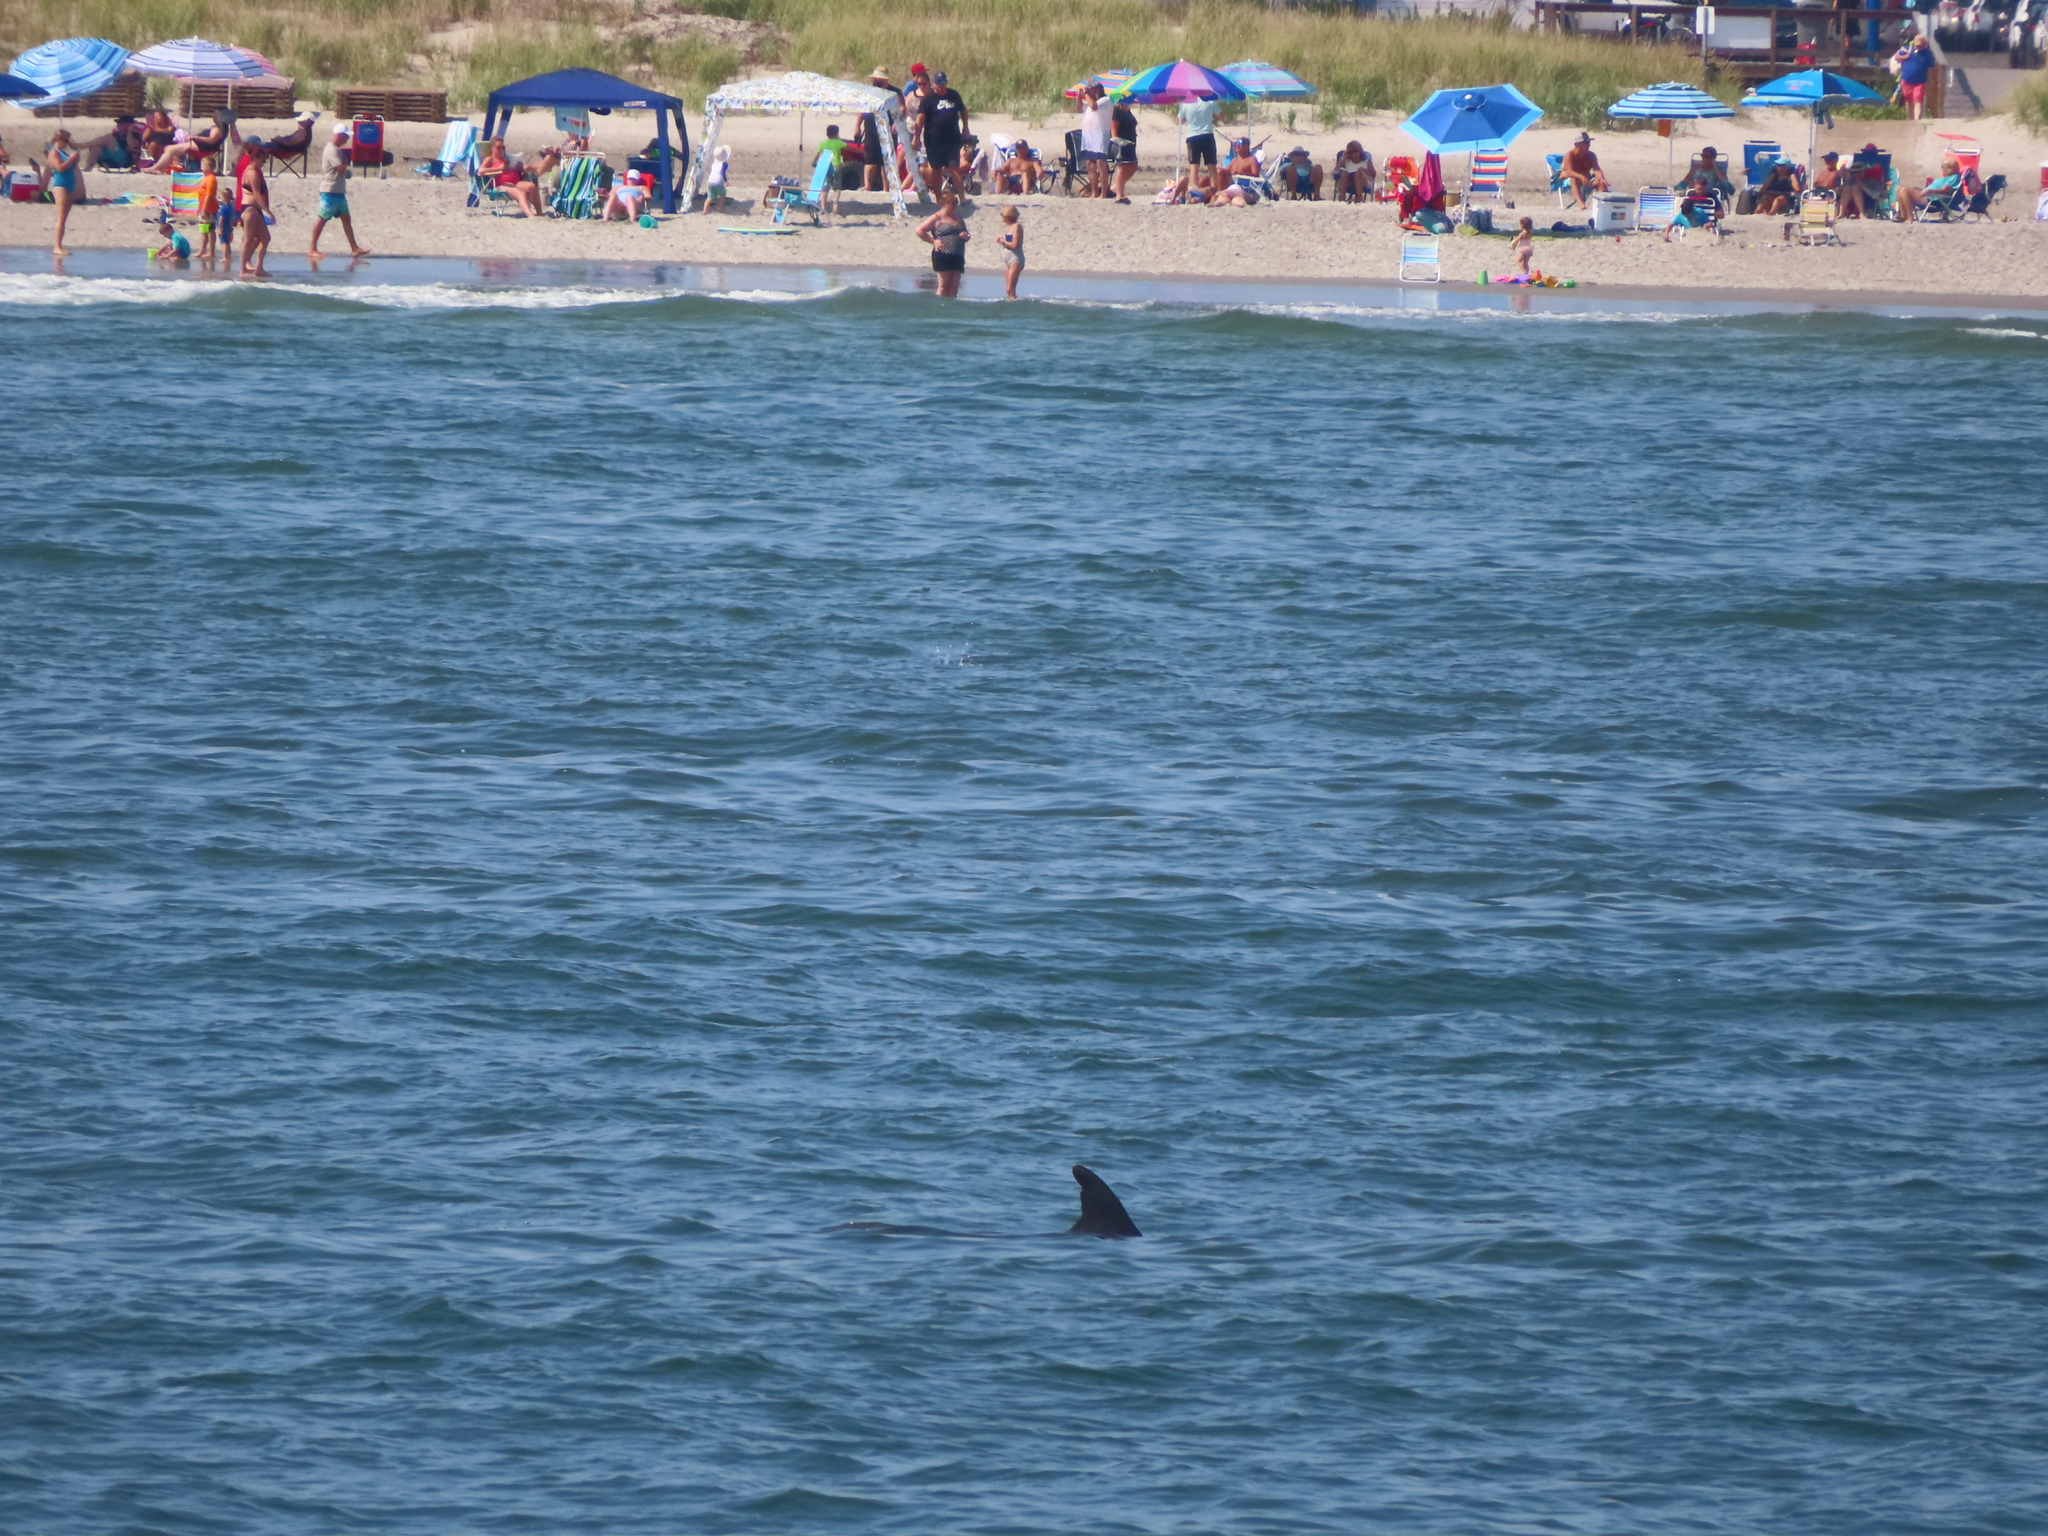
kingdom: Animalia
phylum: Chordata
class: Mammalia
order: Cetacea
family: Delphinidae
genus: Tursiops
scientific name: Tursiops truncatus
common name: Bottlenose dolphin
